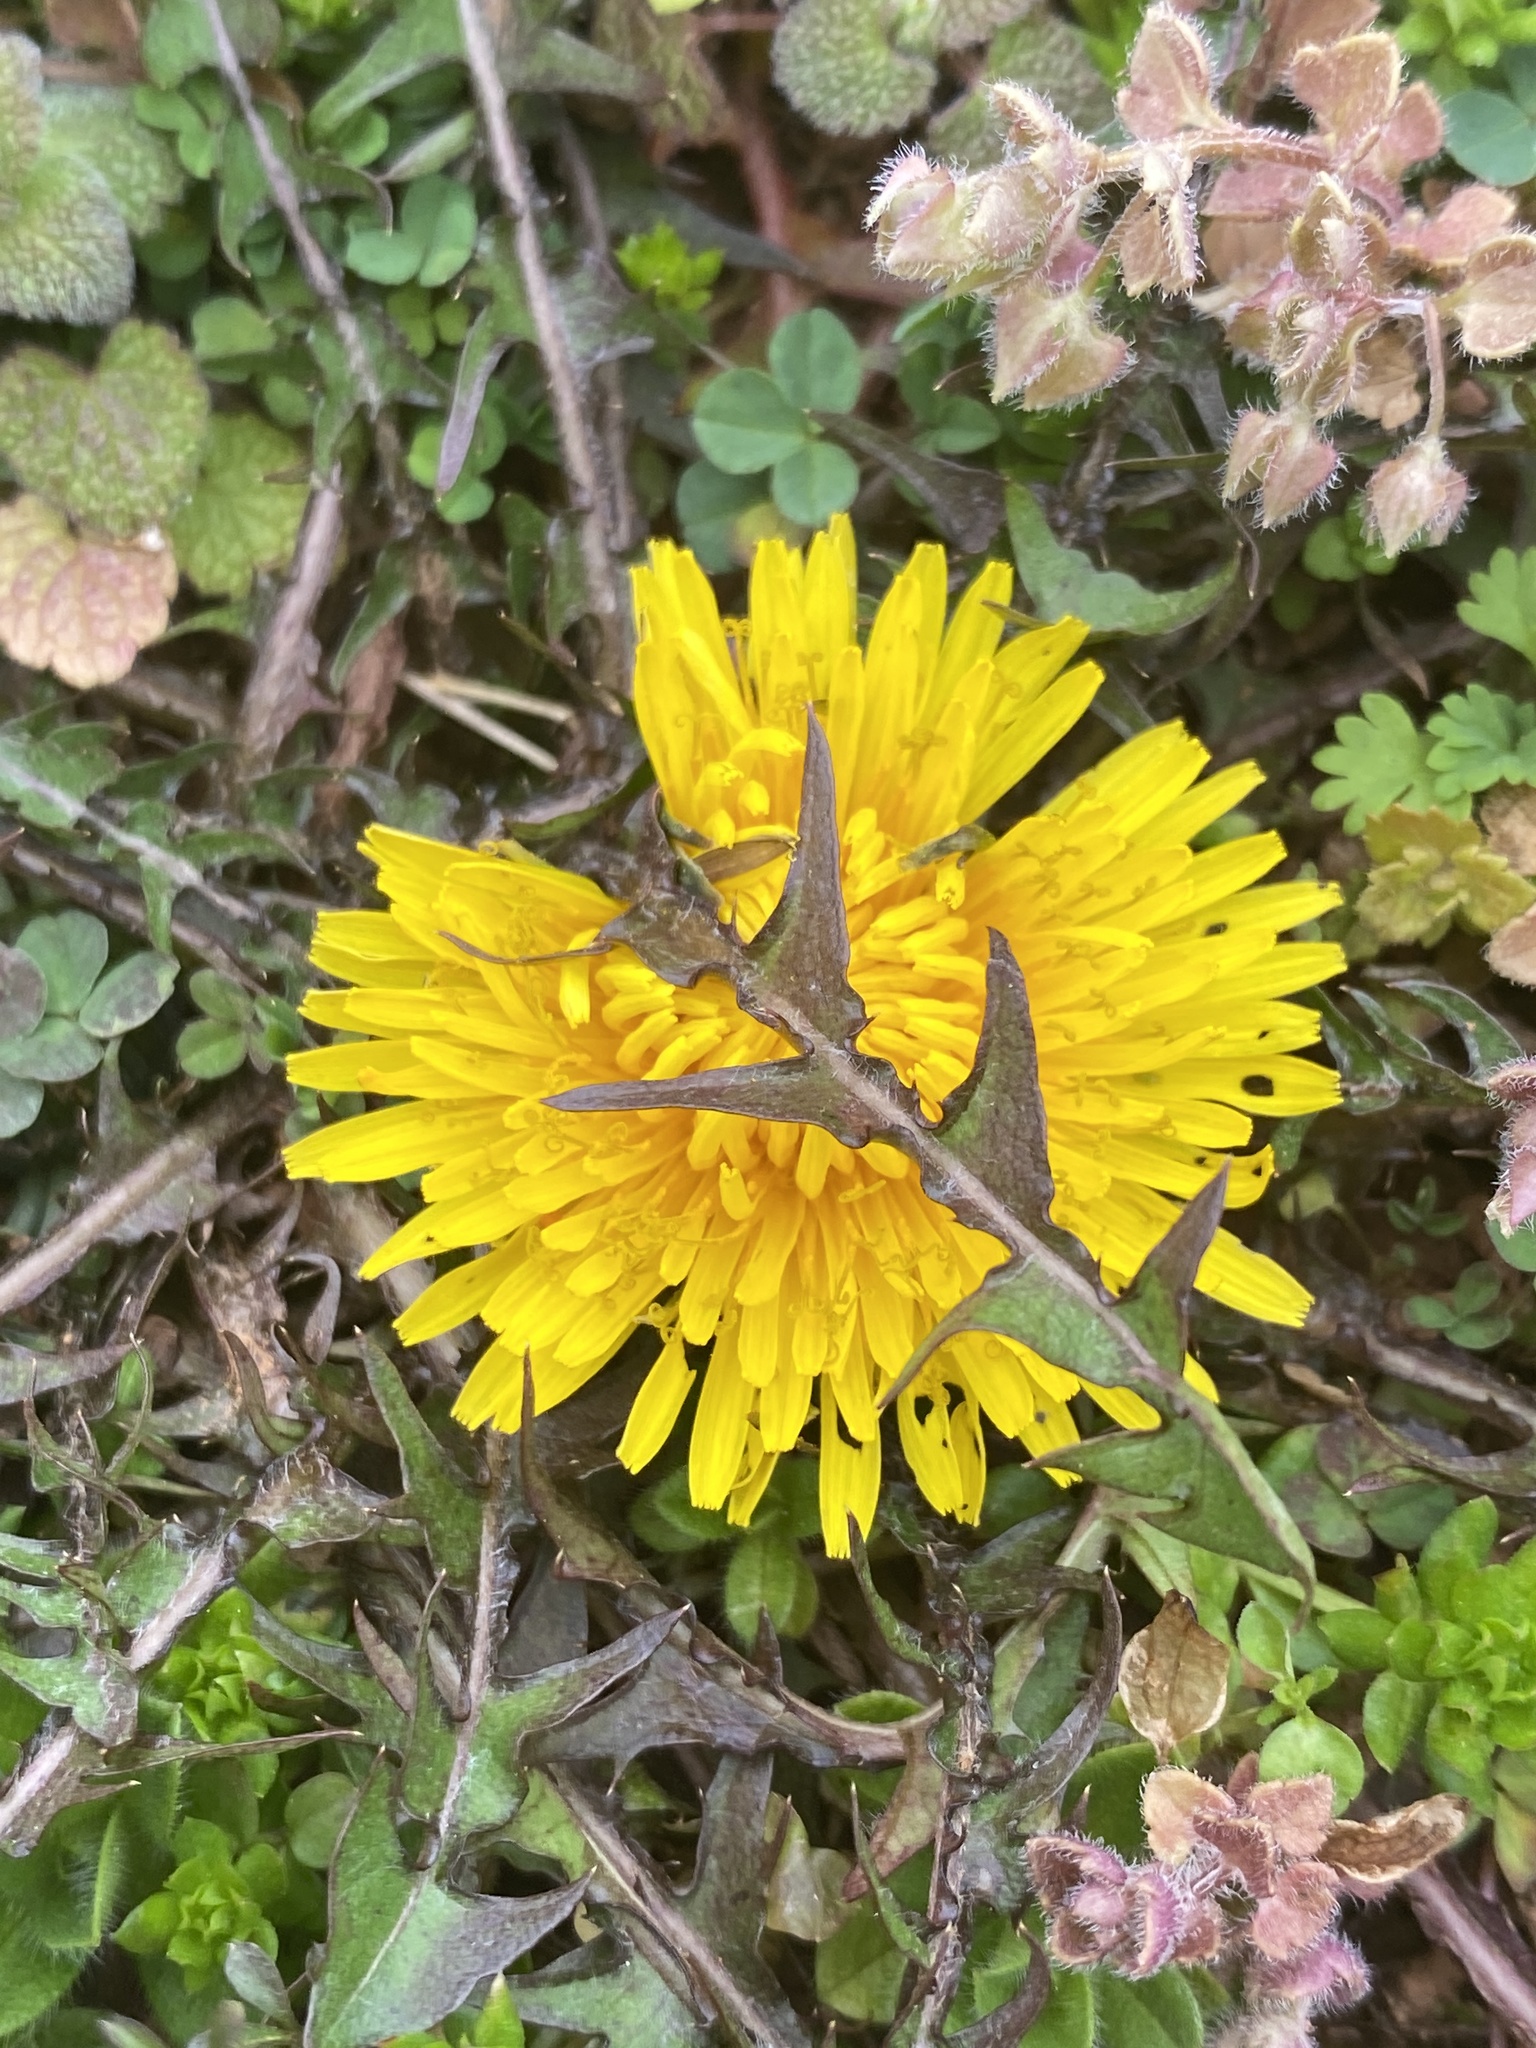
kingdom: Plantae
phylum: Tracheophyta
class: Magnoliopsida
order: Asterales
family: Asteraceae
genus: Taraxacum
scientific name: Taraxacum officinale
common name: Common dandelion
